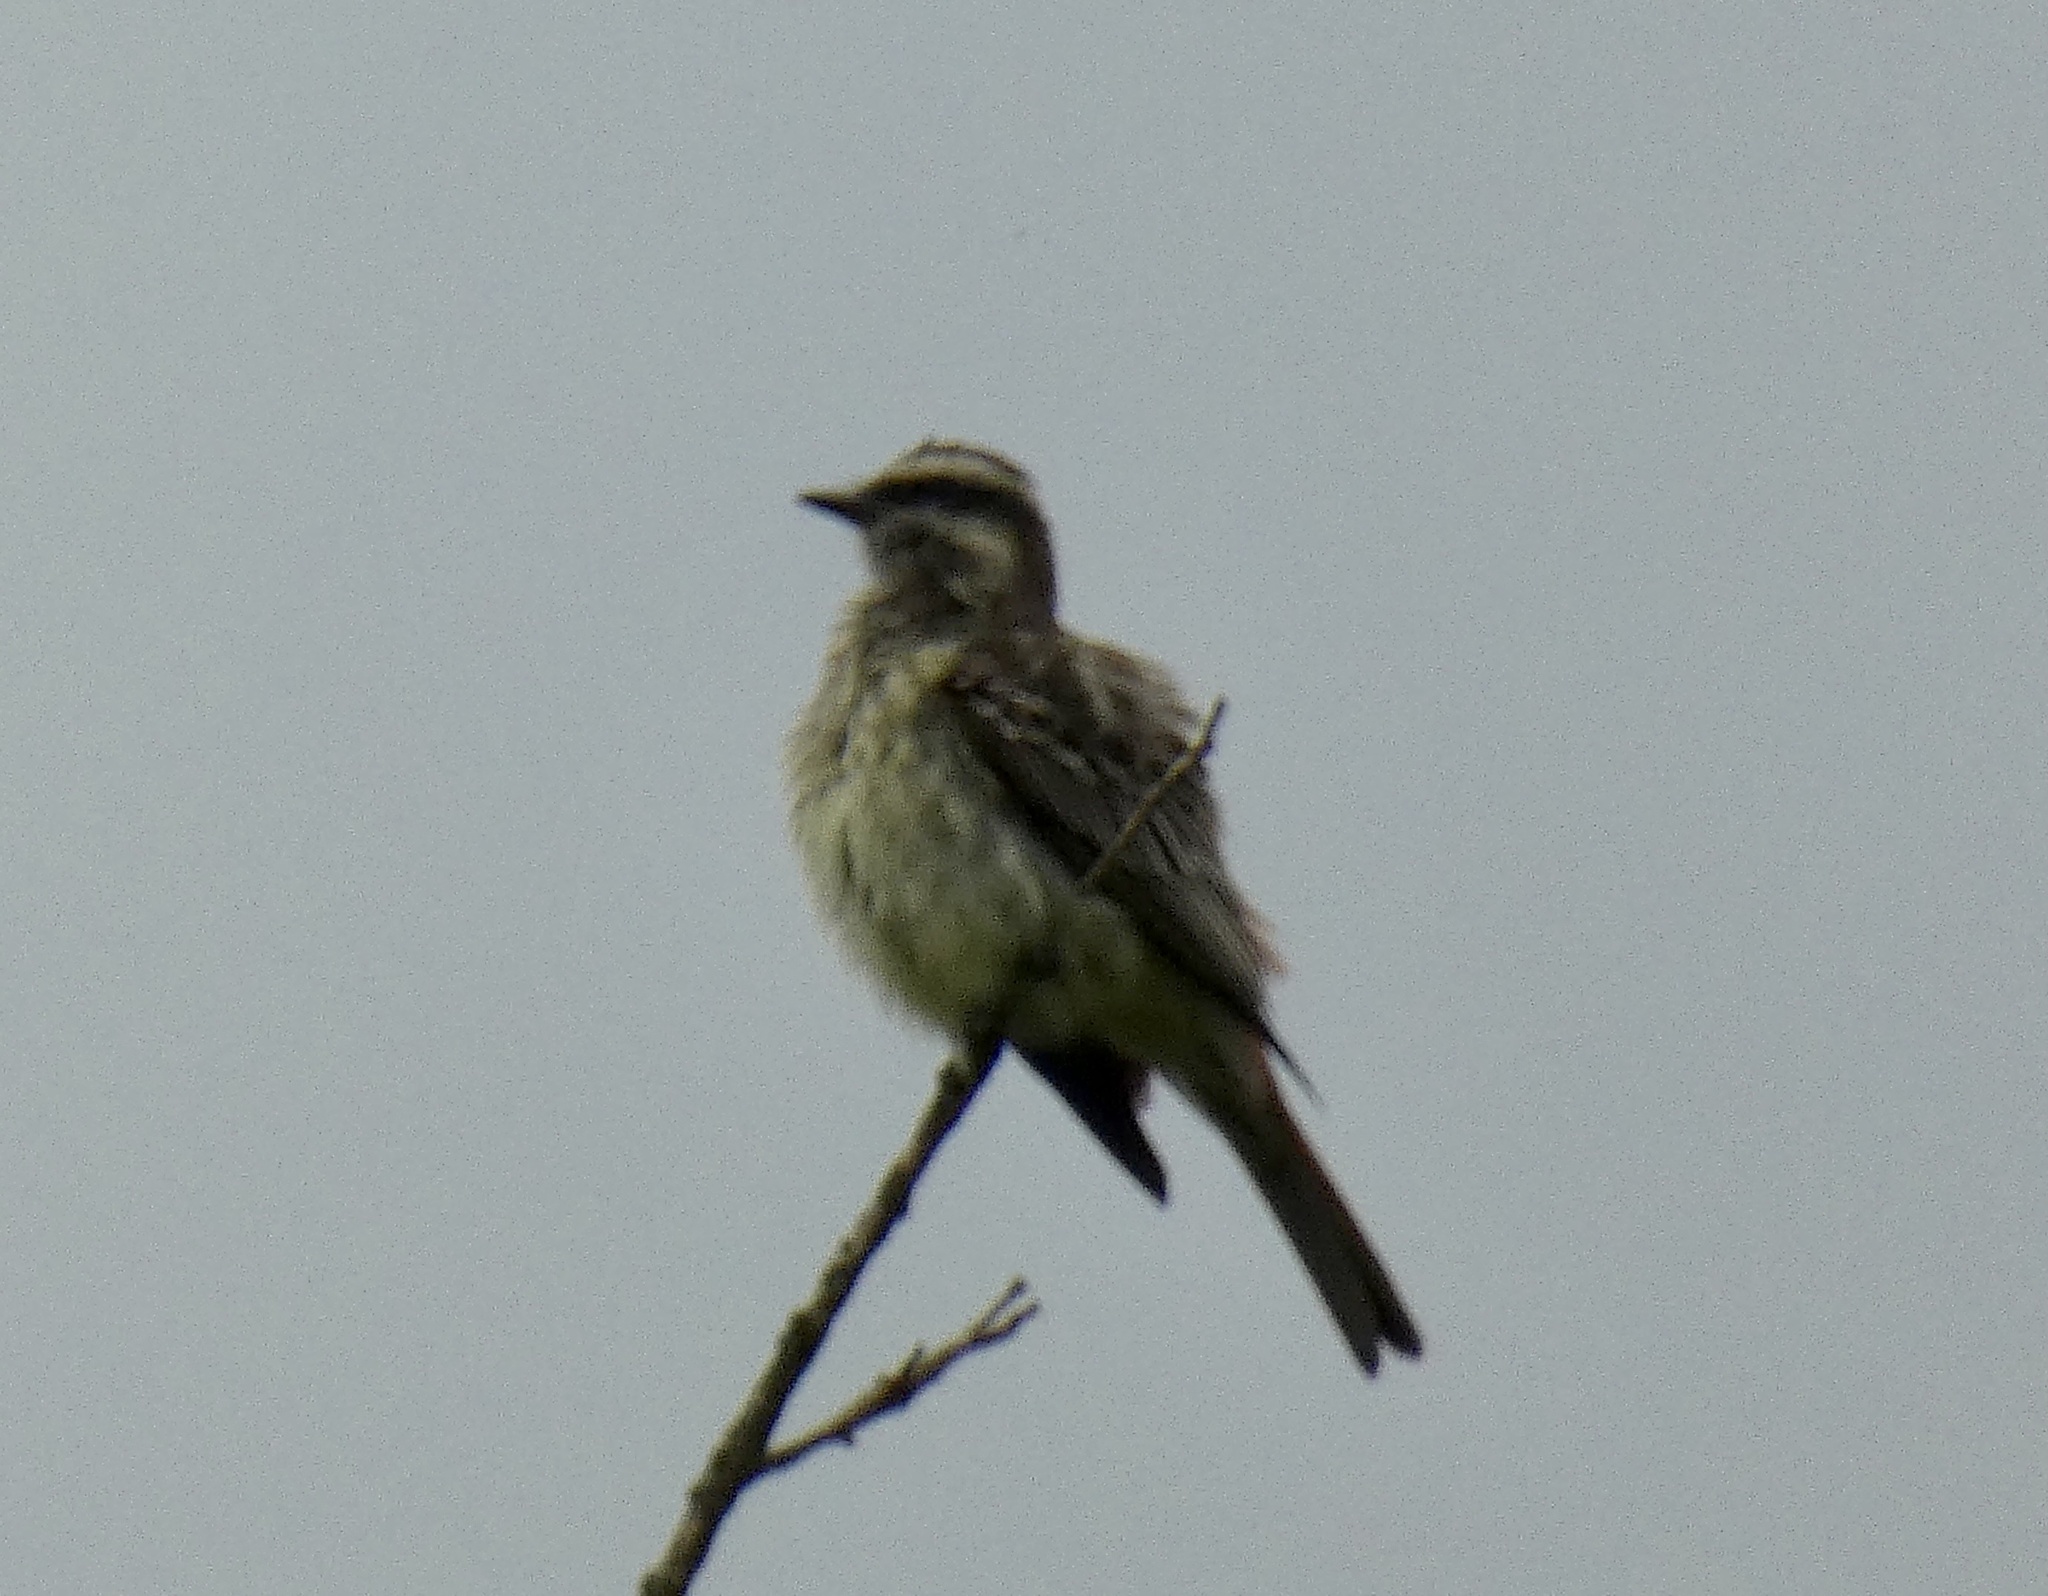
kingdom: Animalia
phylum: Chordata
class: Aves
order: Passeriformes
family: Tyrannidae
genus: Empidonomus
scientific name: Empidonomus varius
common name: Variegated flycatcher
